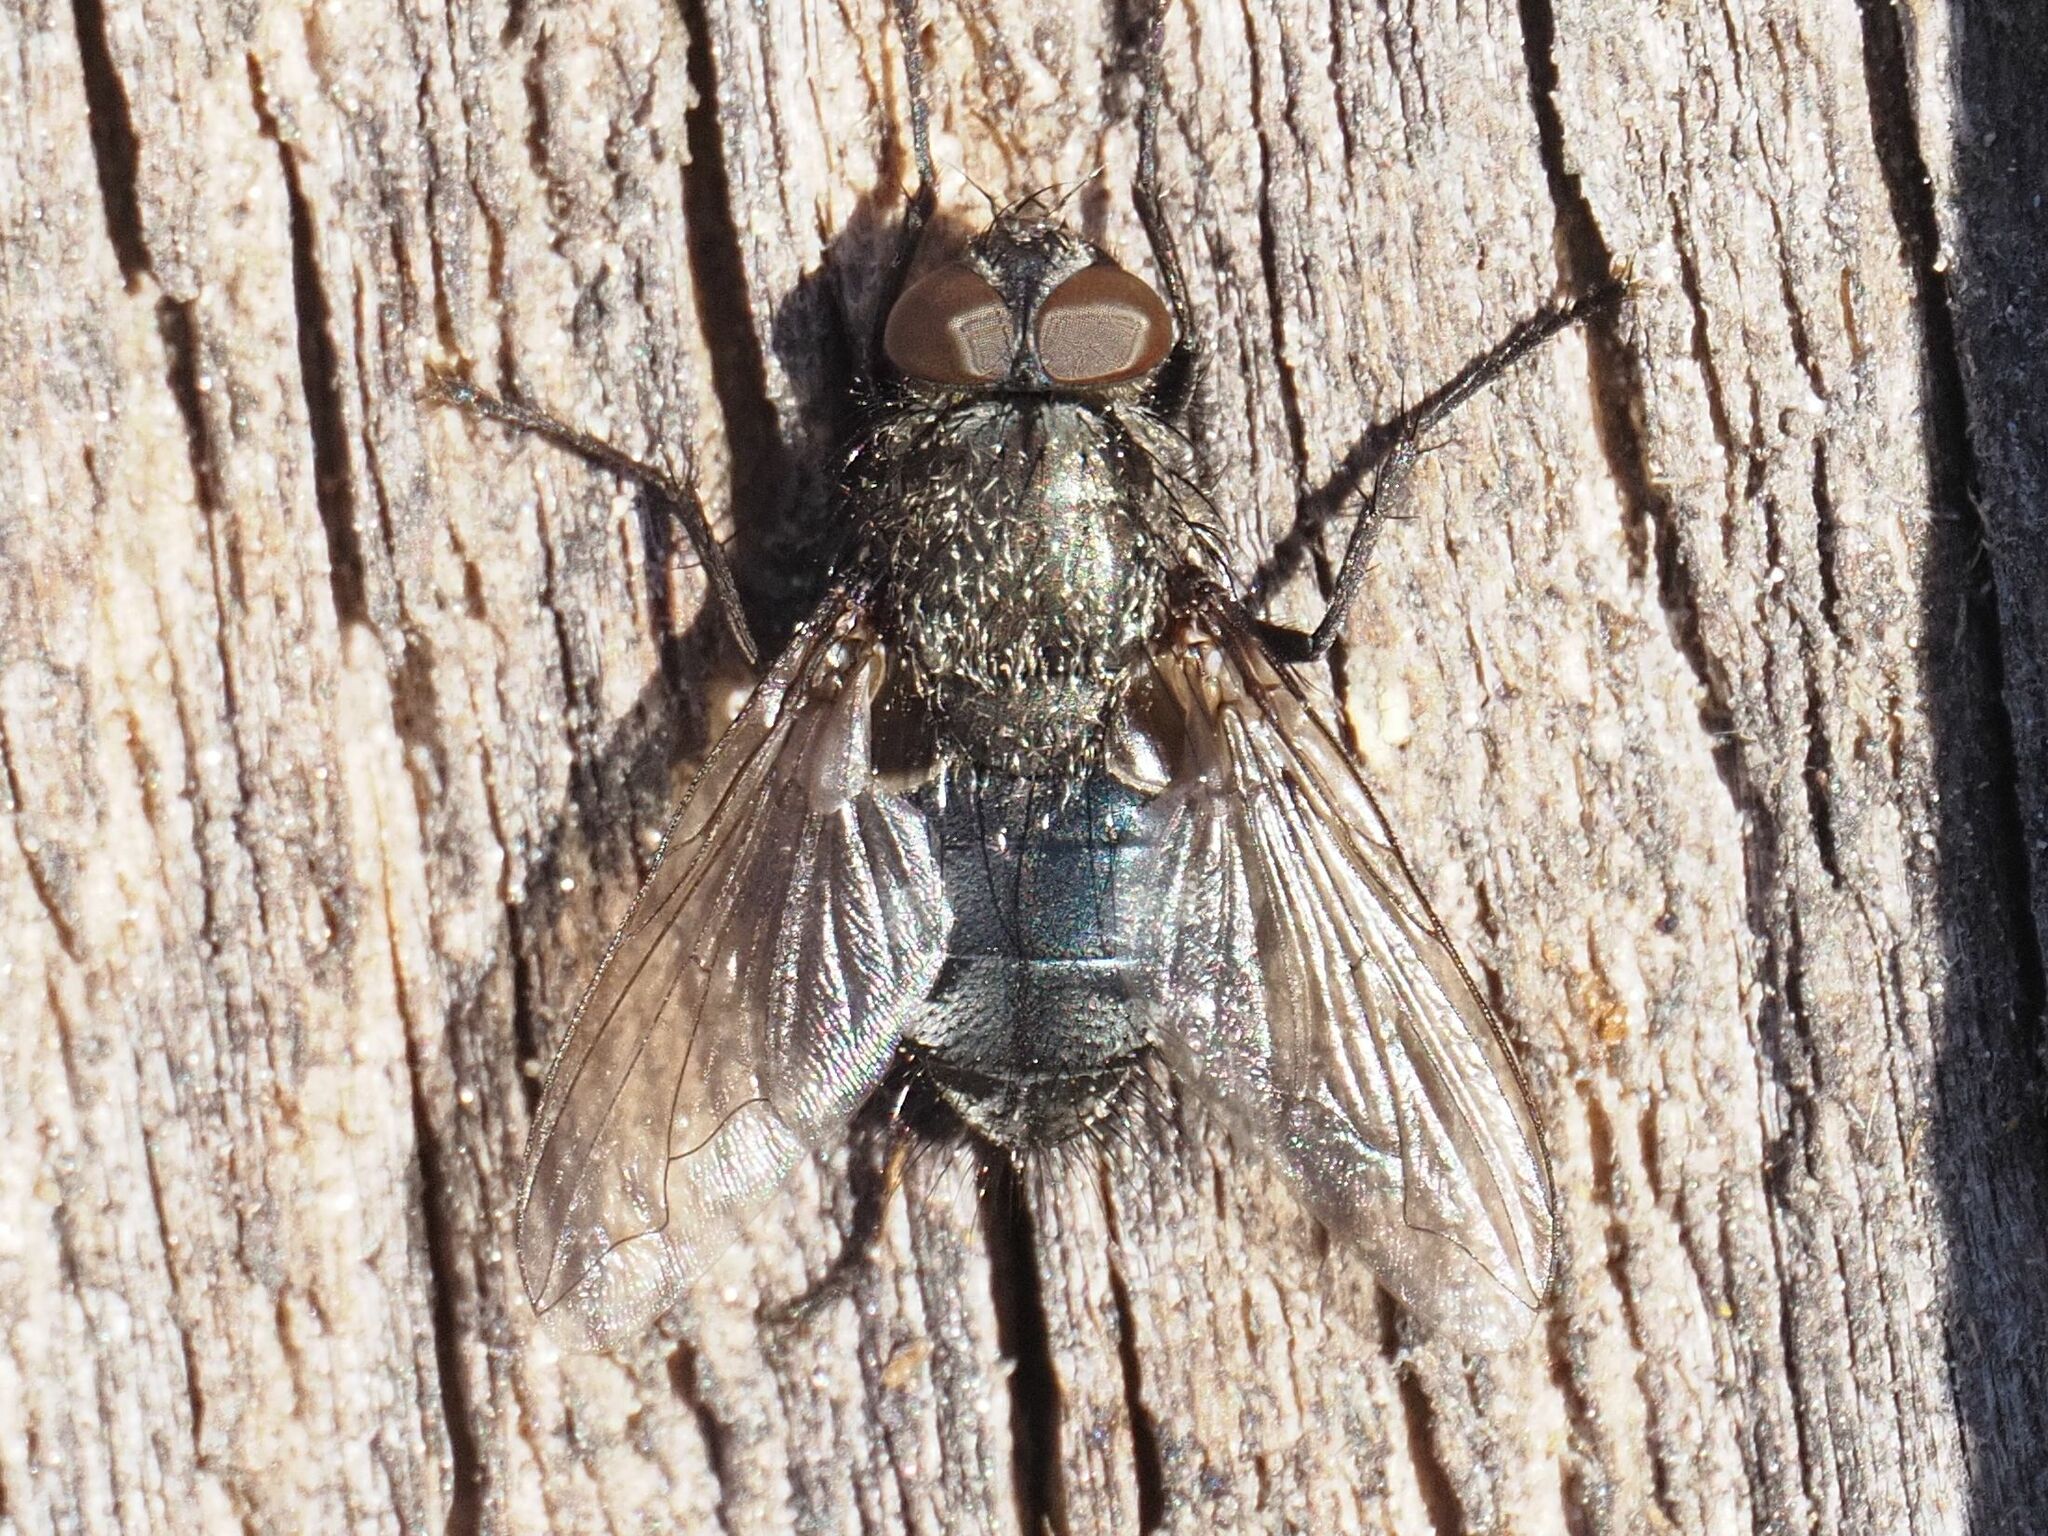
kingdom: Animalia
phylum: Arthropoda
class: Insecta
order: Diptera
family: Polleniidae
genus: Pollenia
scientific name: Pollenia vagabunda
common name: Vagabund cluster fly
